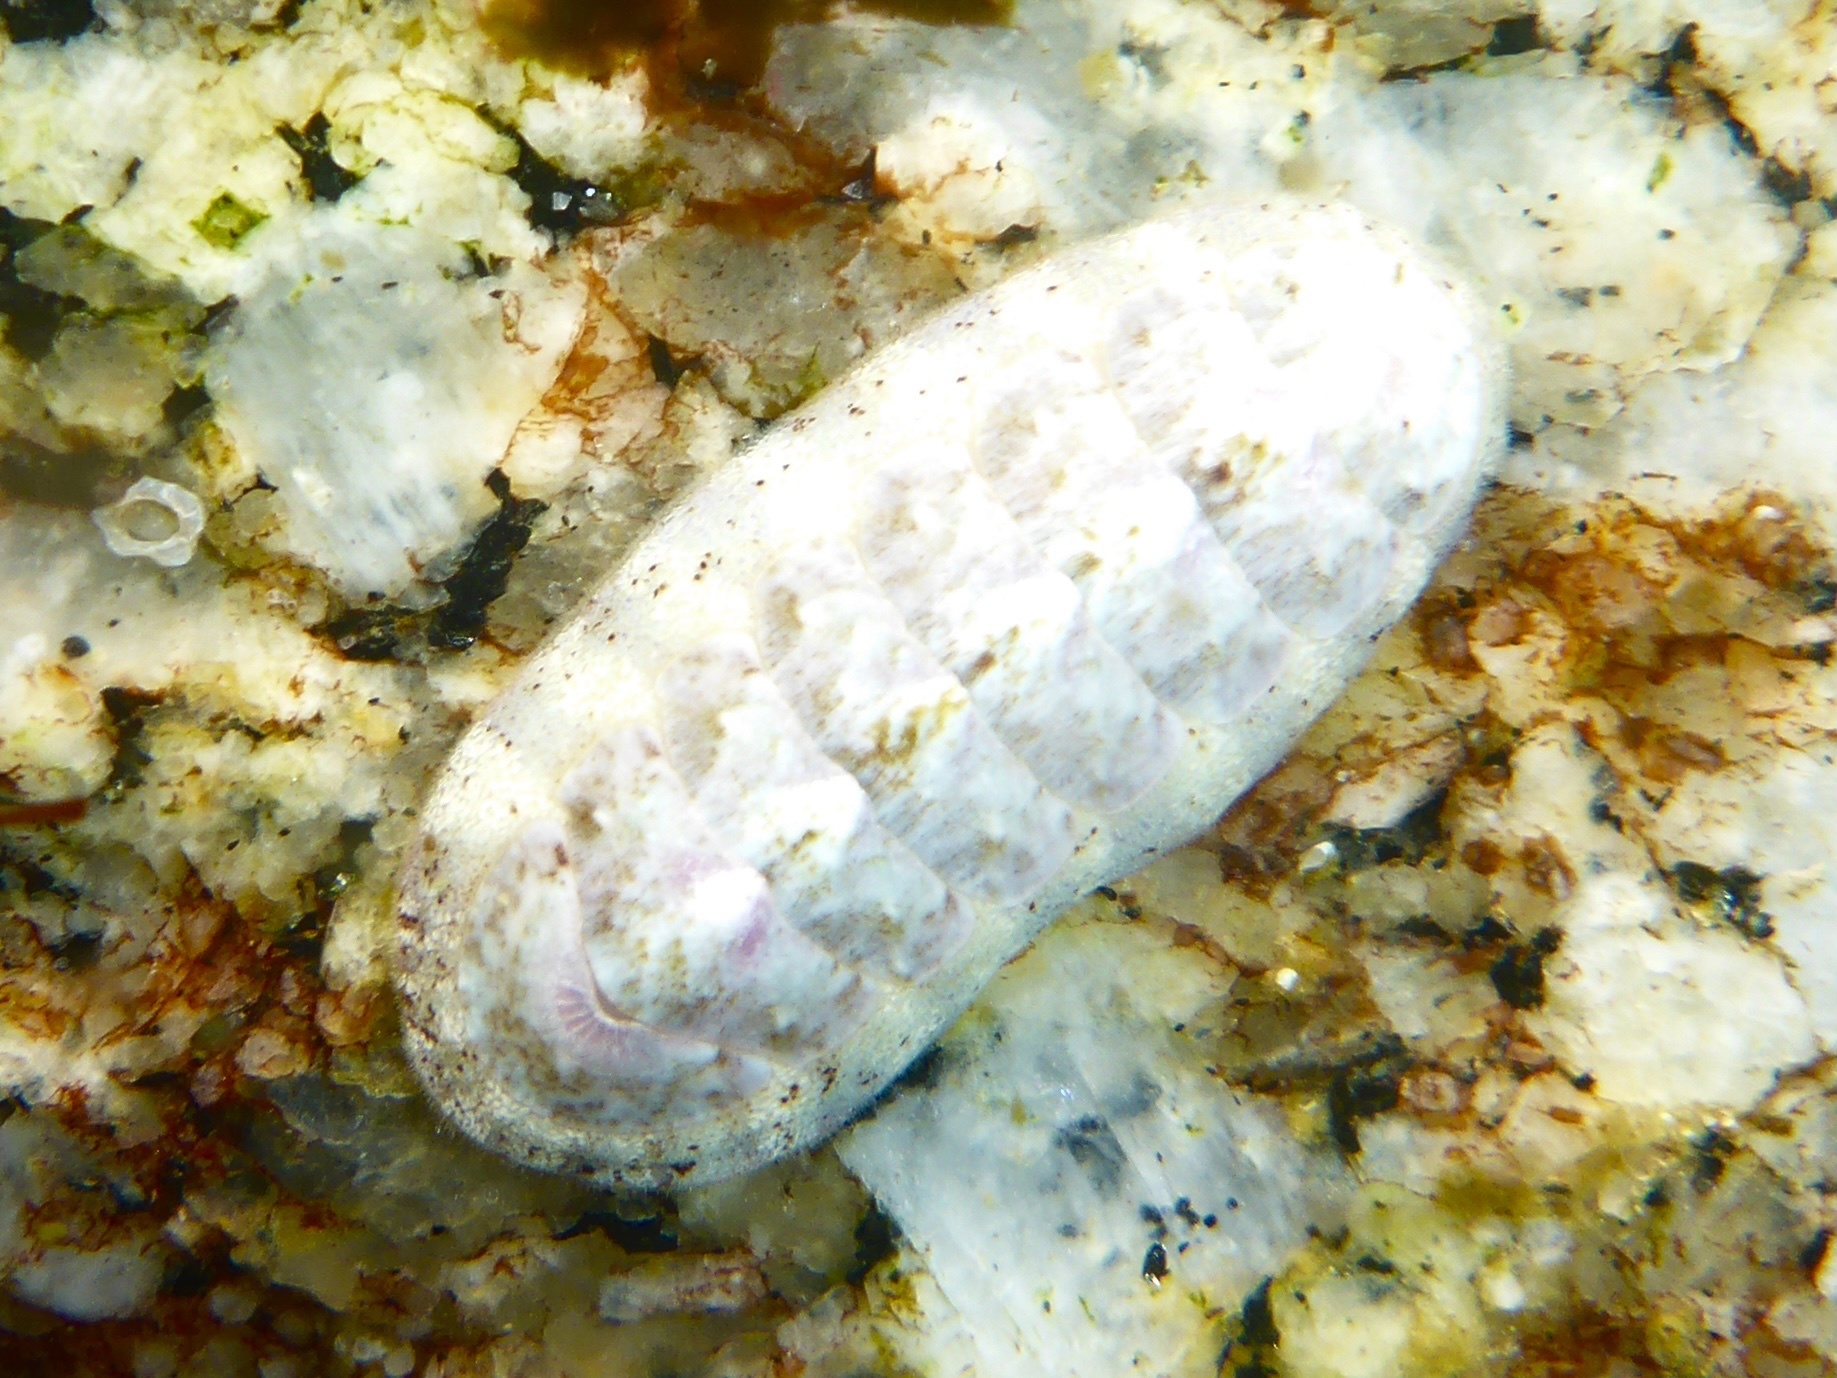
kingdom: Animalia
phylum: Mollusca
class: Polyplacophora
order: Chitonida
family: Ischnochitonidae
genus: Stenoplax
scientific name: Stenoplax heathiana
